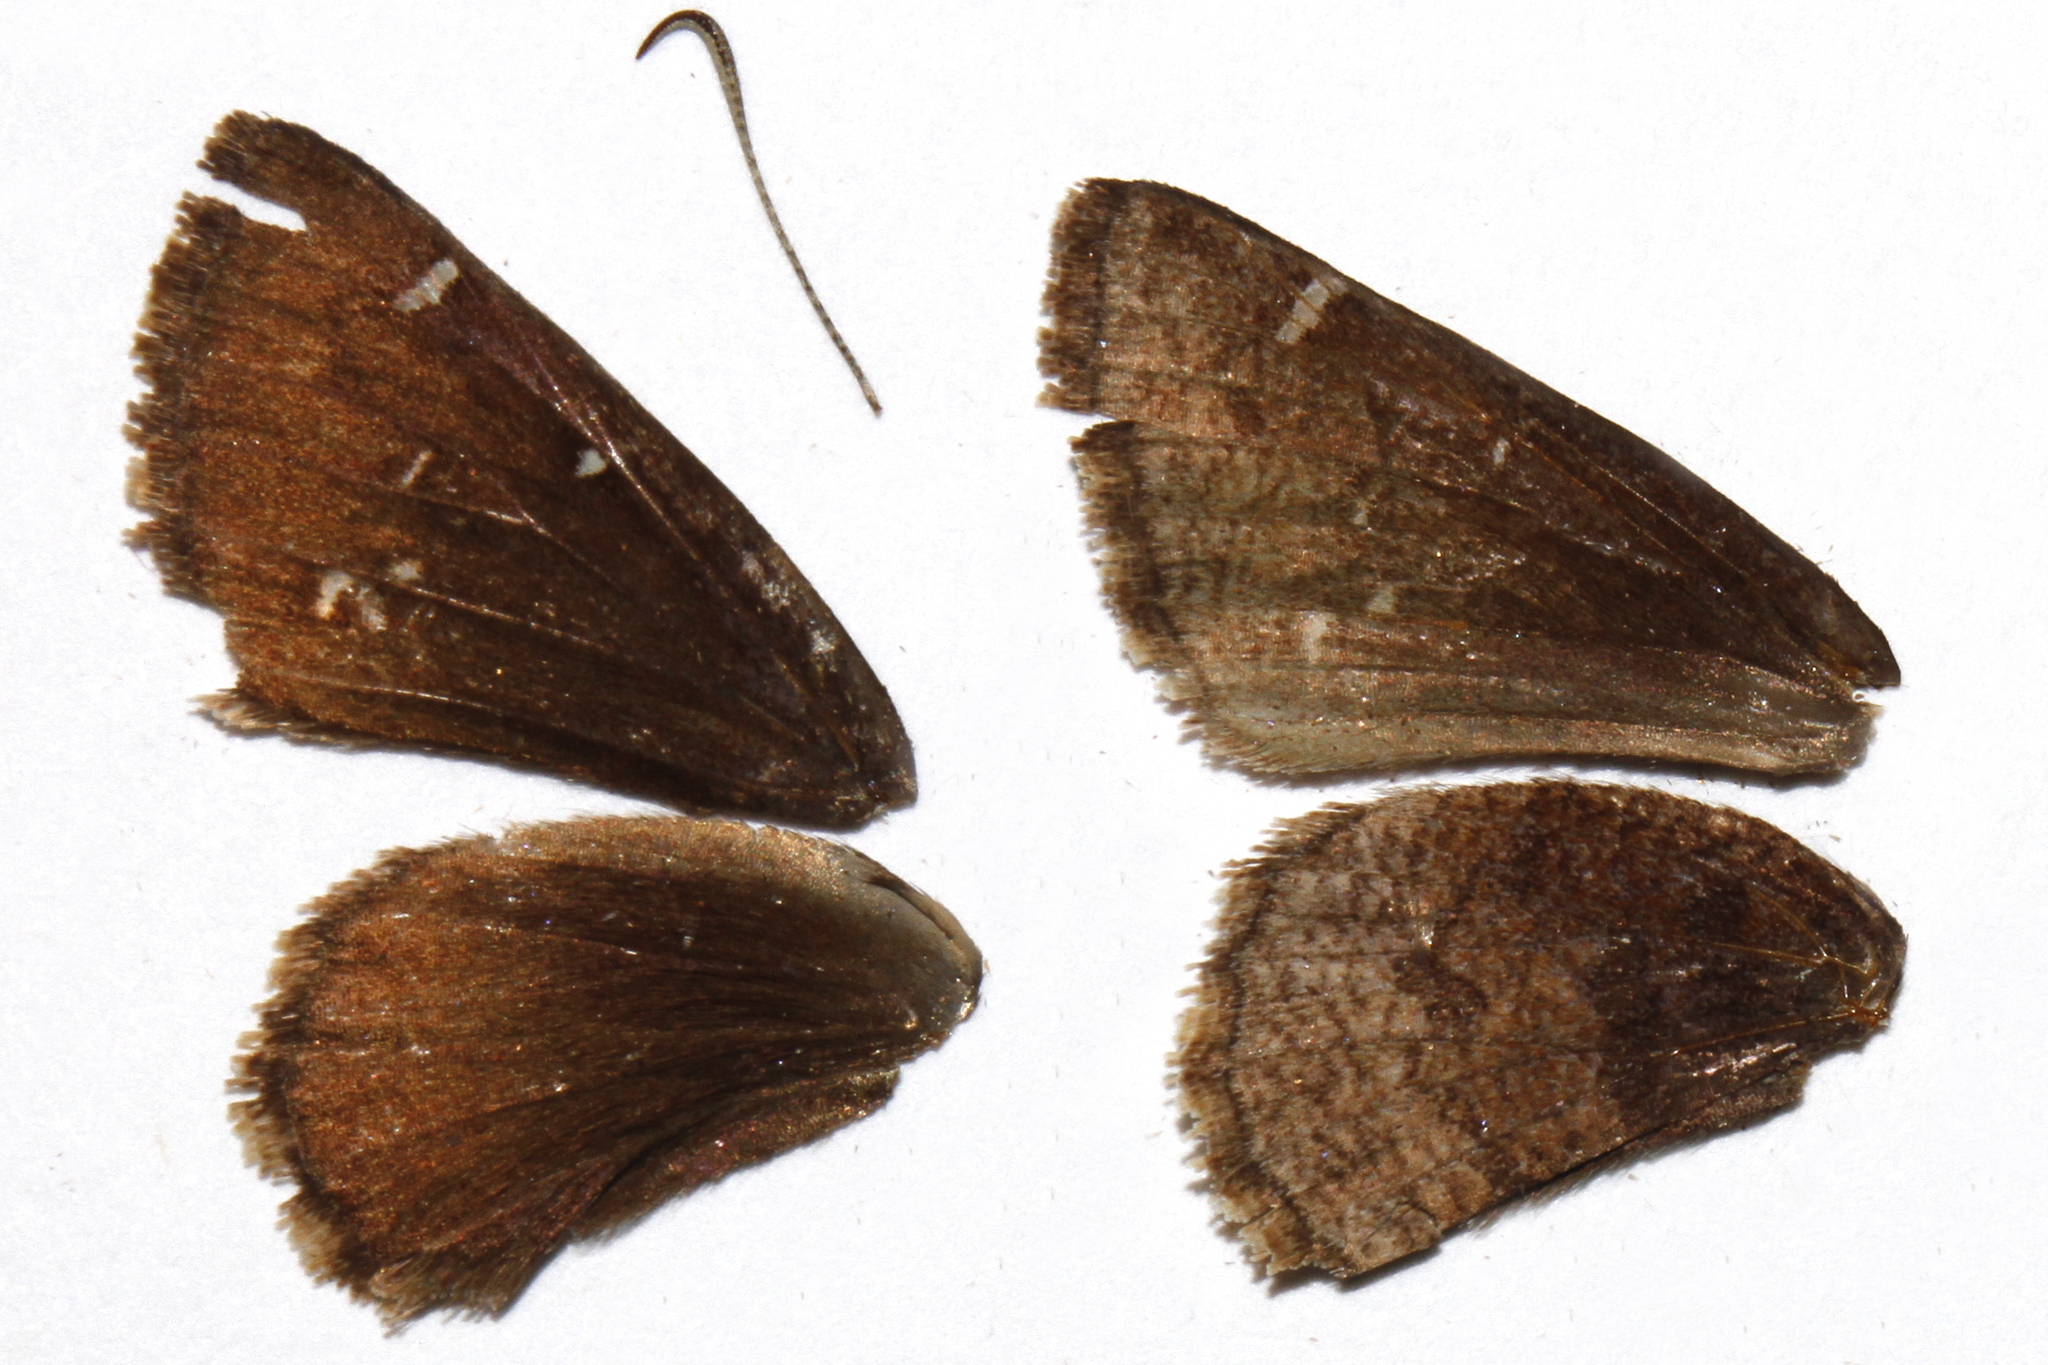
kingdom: Animalia
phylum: Arthropoda
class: Insecta
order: Lepidoptera
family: Hesperiidae
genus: Thorybes
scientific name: Thorybes mexicana
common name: Mexican cloudywing
